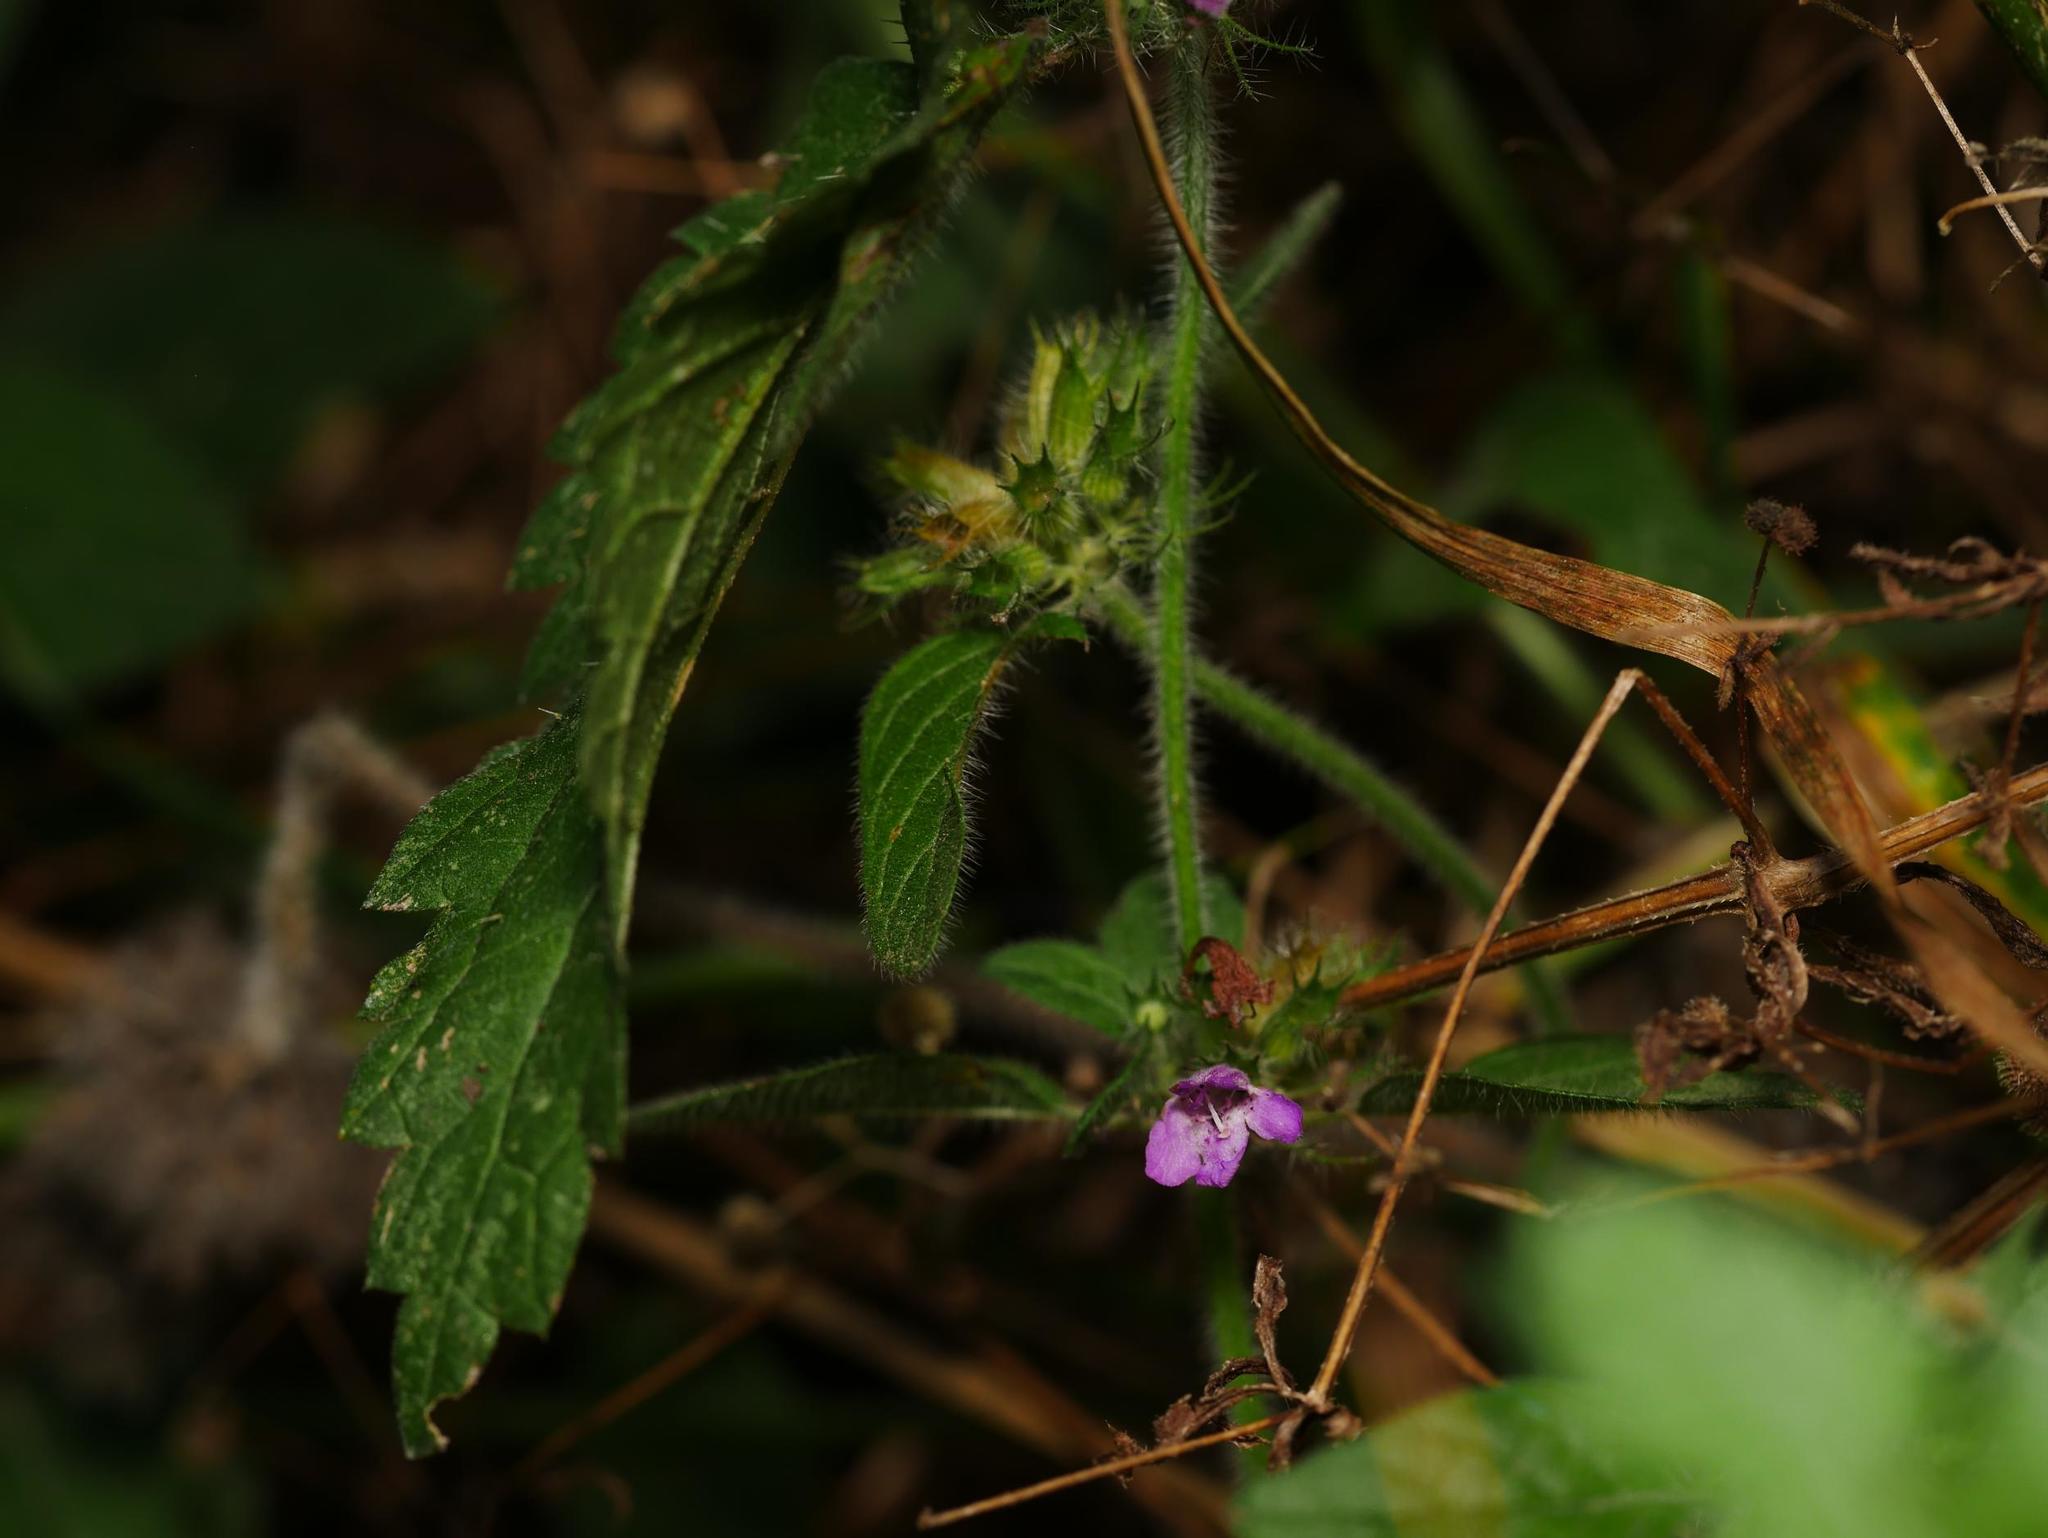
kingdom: Plantae
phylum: Tracheophyta
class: Magnoliopsida
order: Lamiales
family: Lamiaceae
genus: Ballota
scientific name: Ballota nigra
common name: Black horehound
